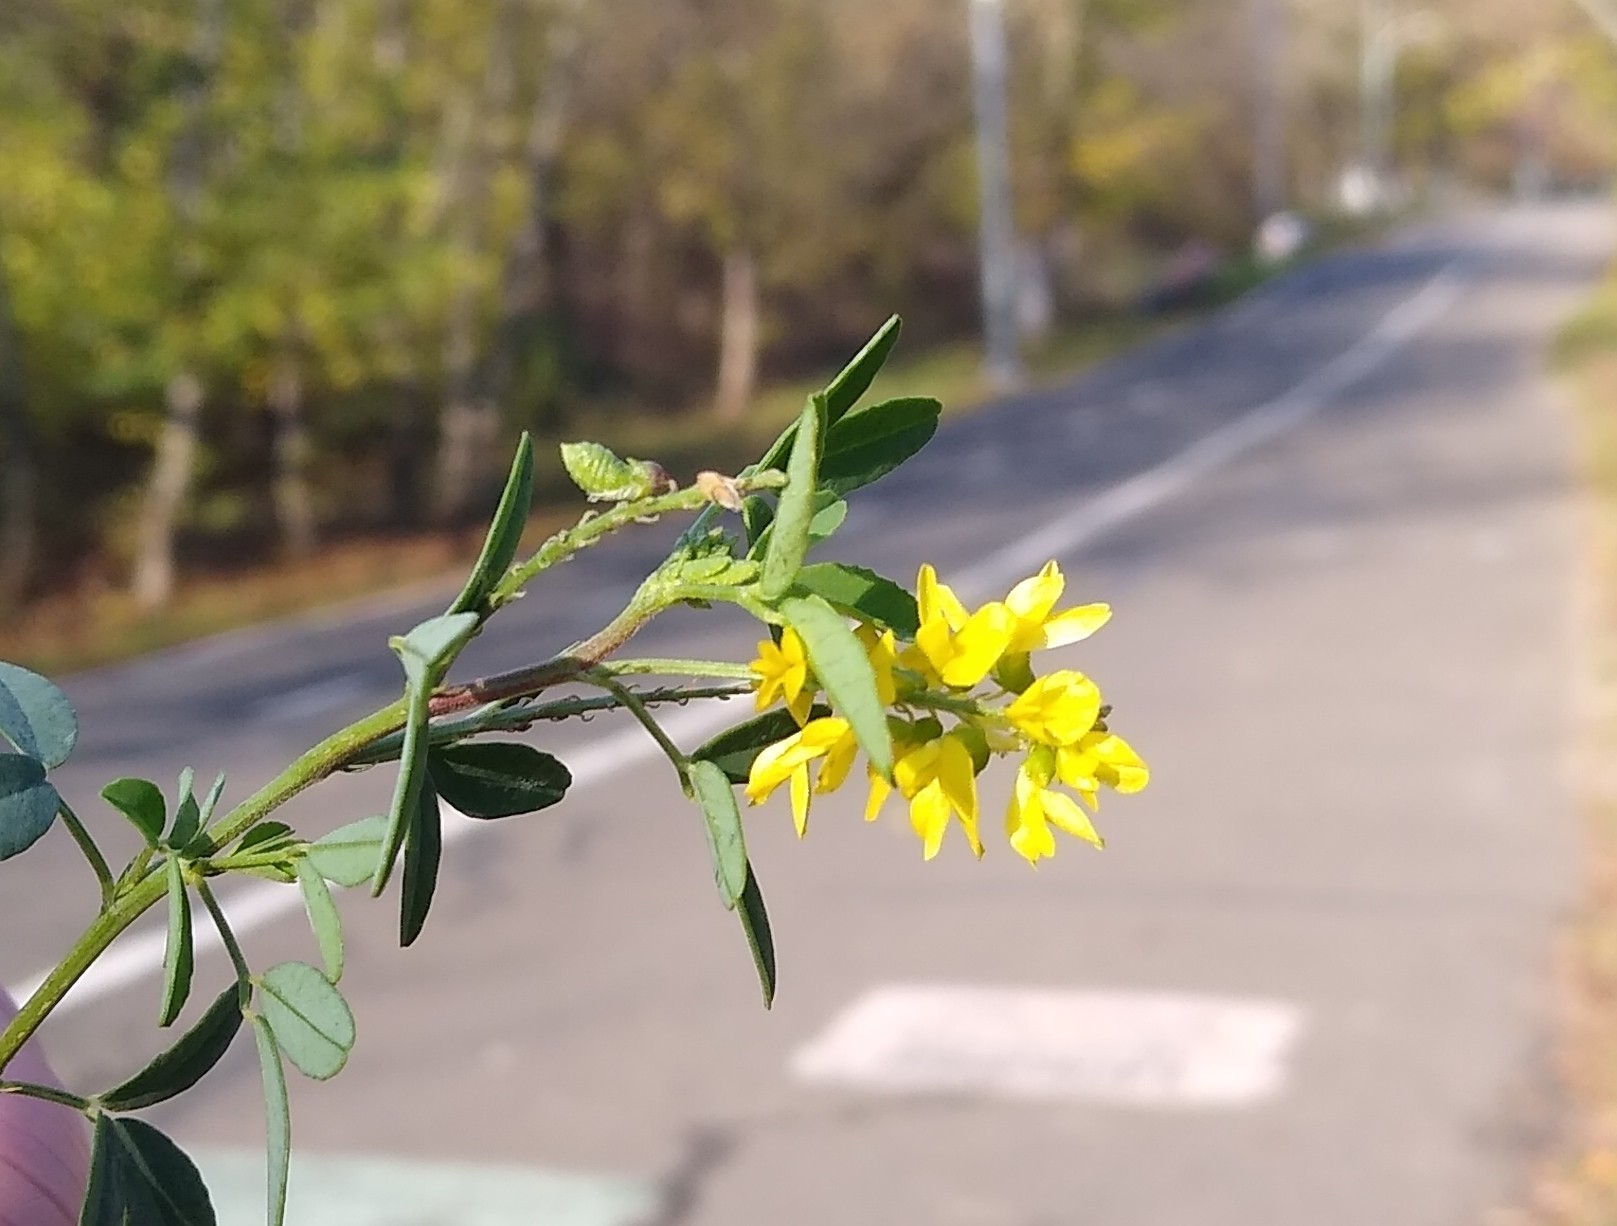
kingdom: Plantae
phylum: Tracheophyta
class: Magnoliopsida
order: Fabales
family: Fabaceae
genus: Melilotus
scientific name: Melilotus officinalis
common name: Sweetclover
